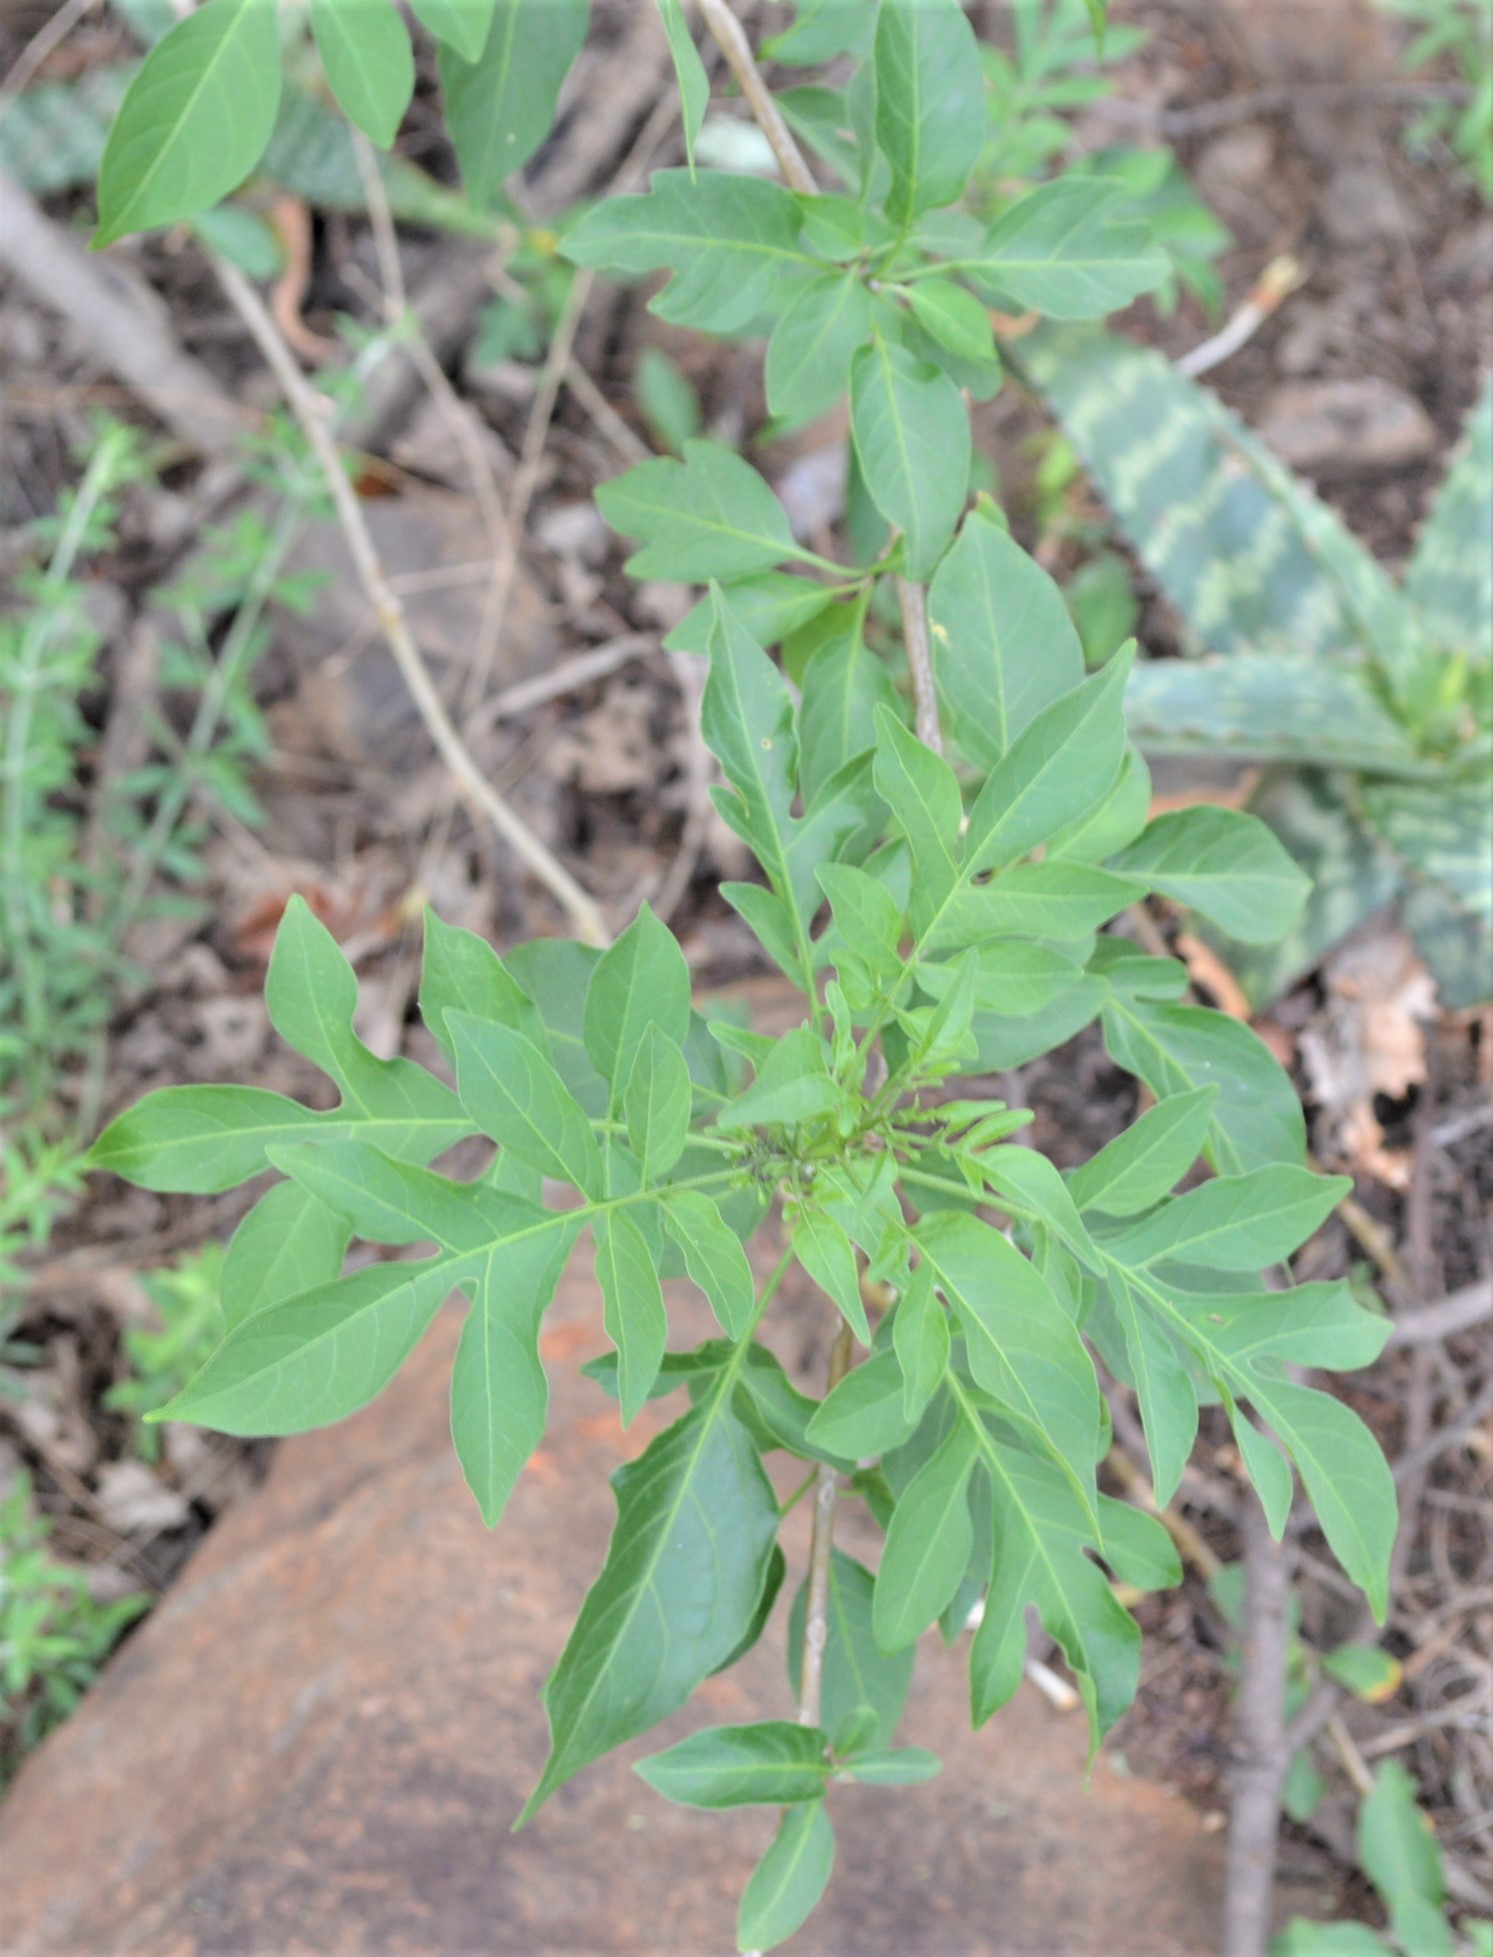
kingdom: Plantae
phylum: Tracheophyta
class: Magnoliopsida
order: Solanales
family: Solanaceae
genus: Solanum
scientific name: Solanum seaforthianum
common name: Brazilian nightshade
